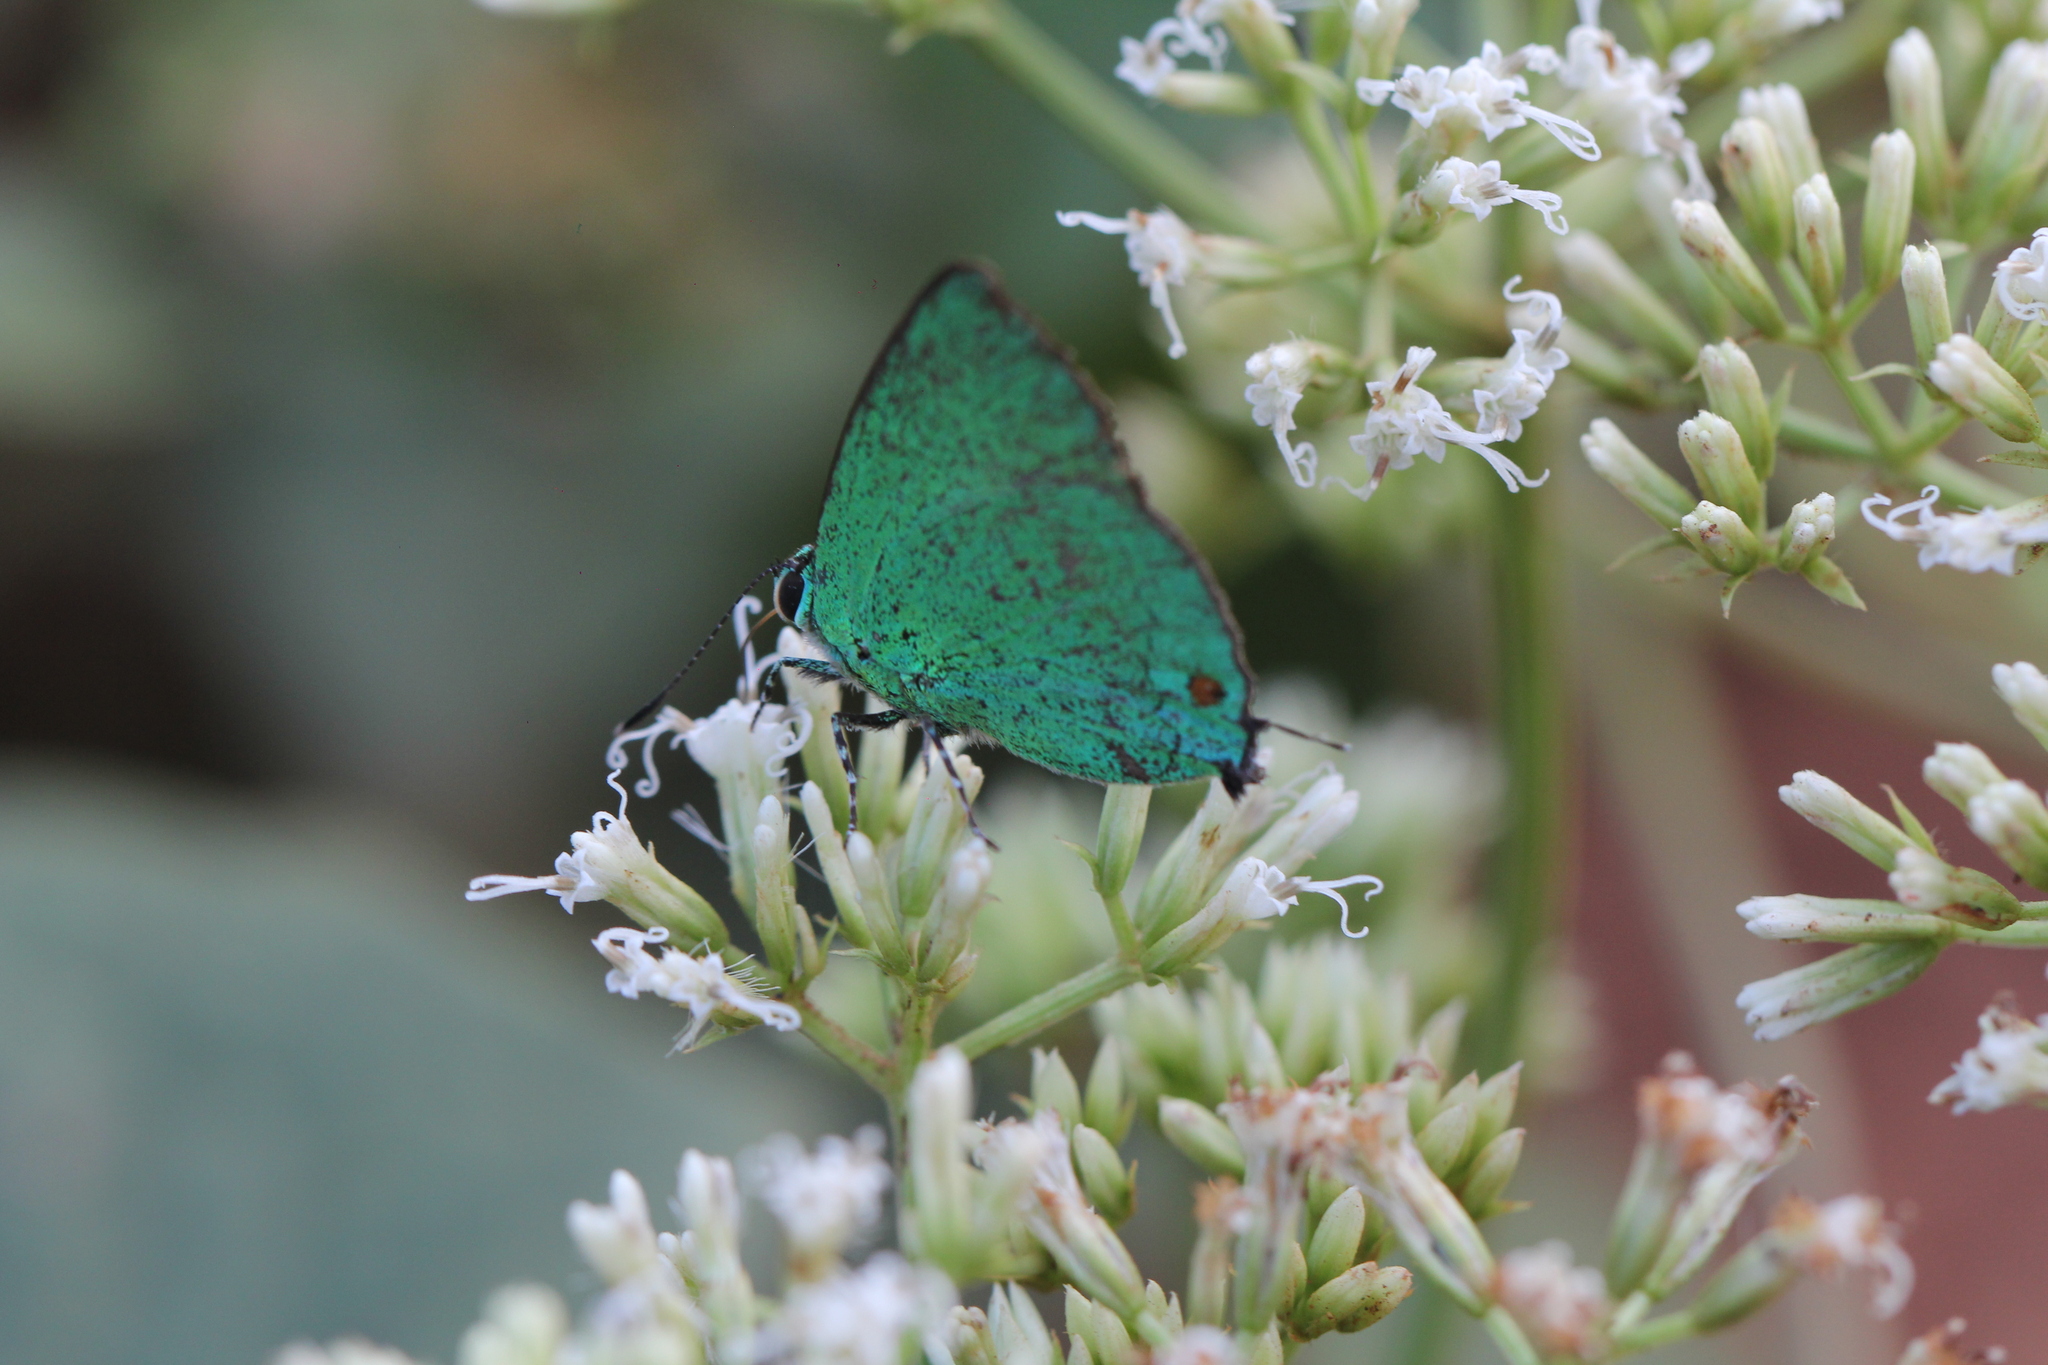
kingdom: Animalia
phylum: Arthropoda
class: Insecta
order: Lepidoptera
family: Lycaenidae
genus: Chalybs
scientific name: Chalybs janias
